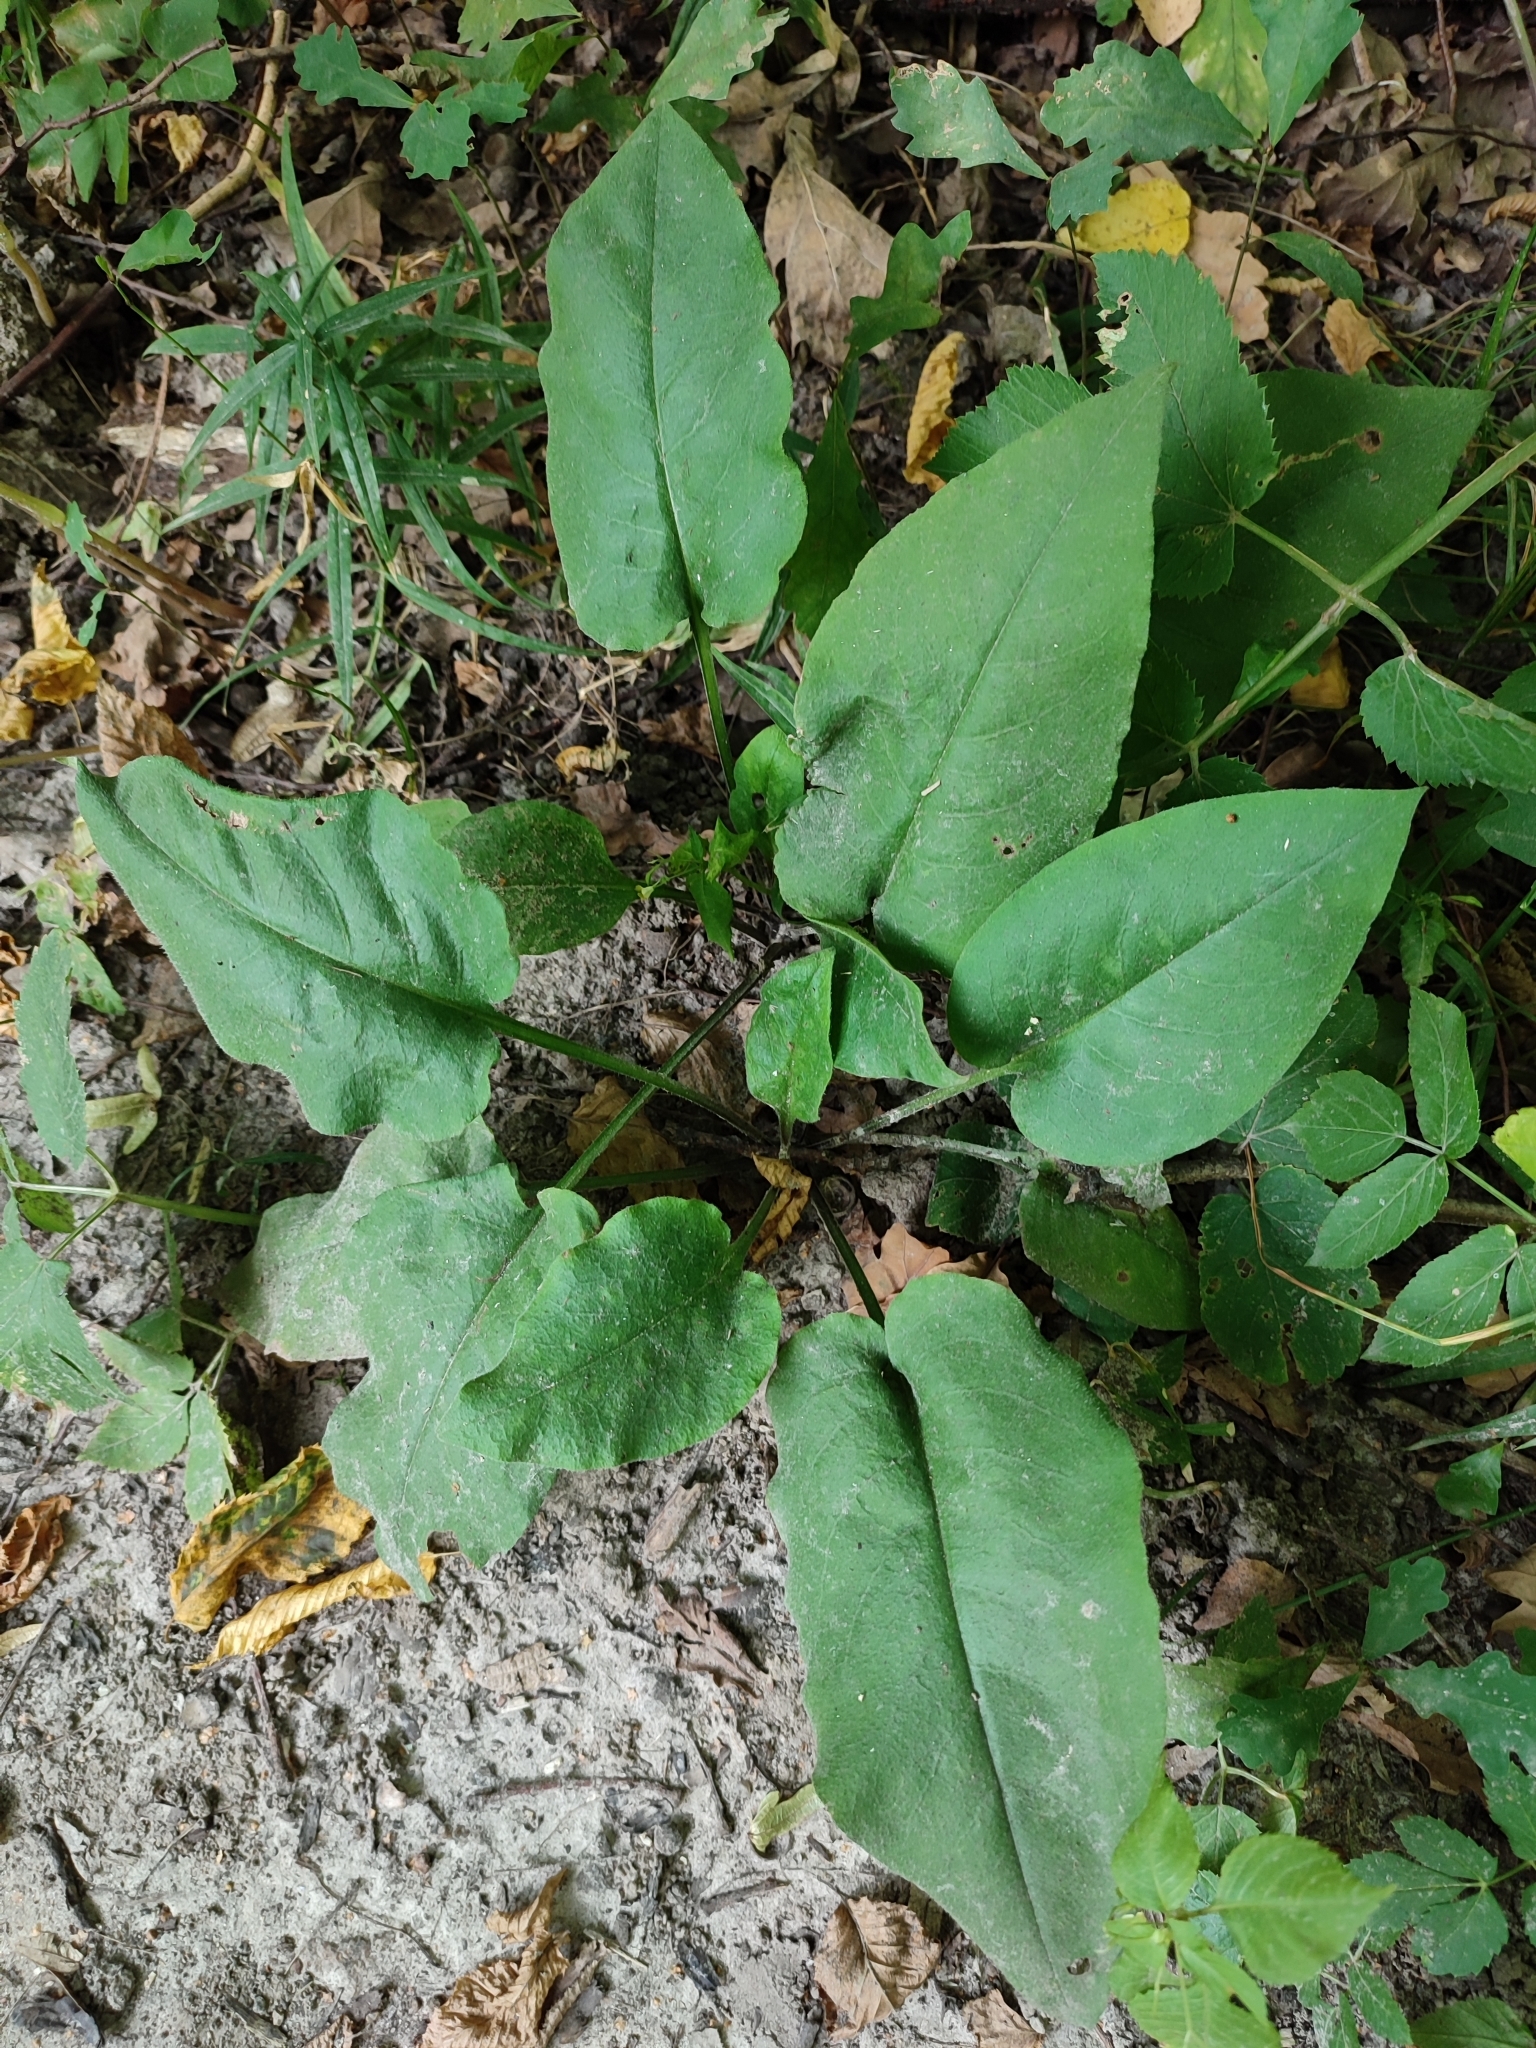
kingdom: Plantae
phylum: Tracheophyta
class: Magnoliopsida
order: Boraginales
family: Boraginaceae
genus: Pulmonaria
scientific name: Pulmonaria obscura
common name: Suffolk lungwort
